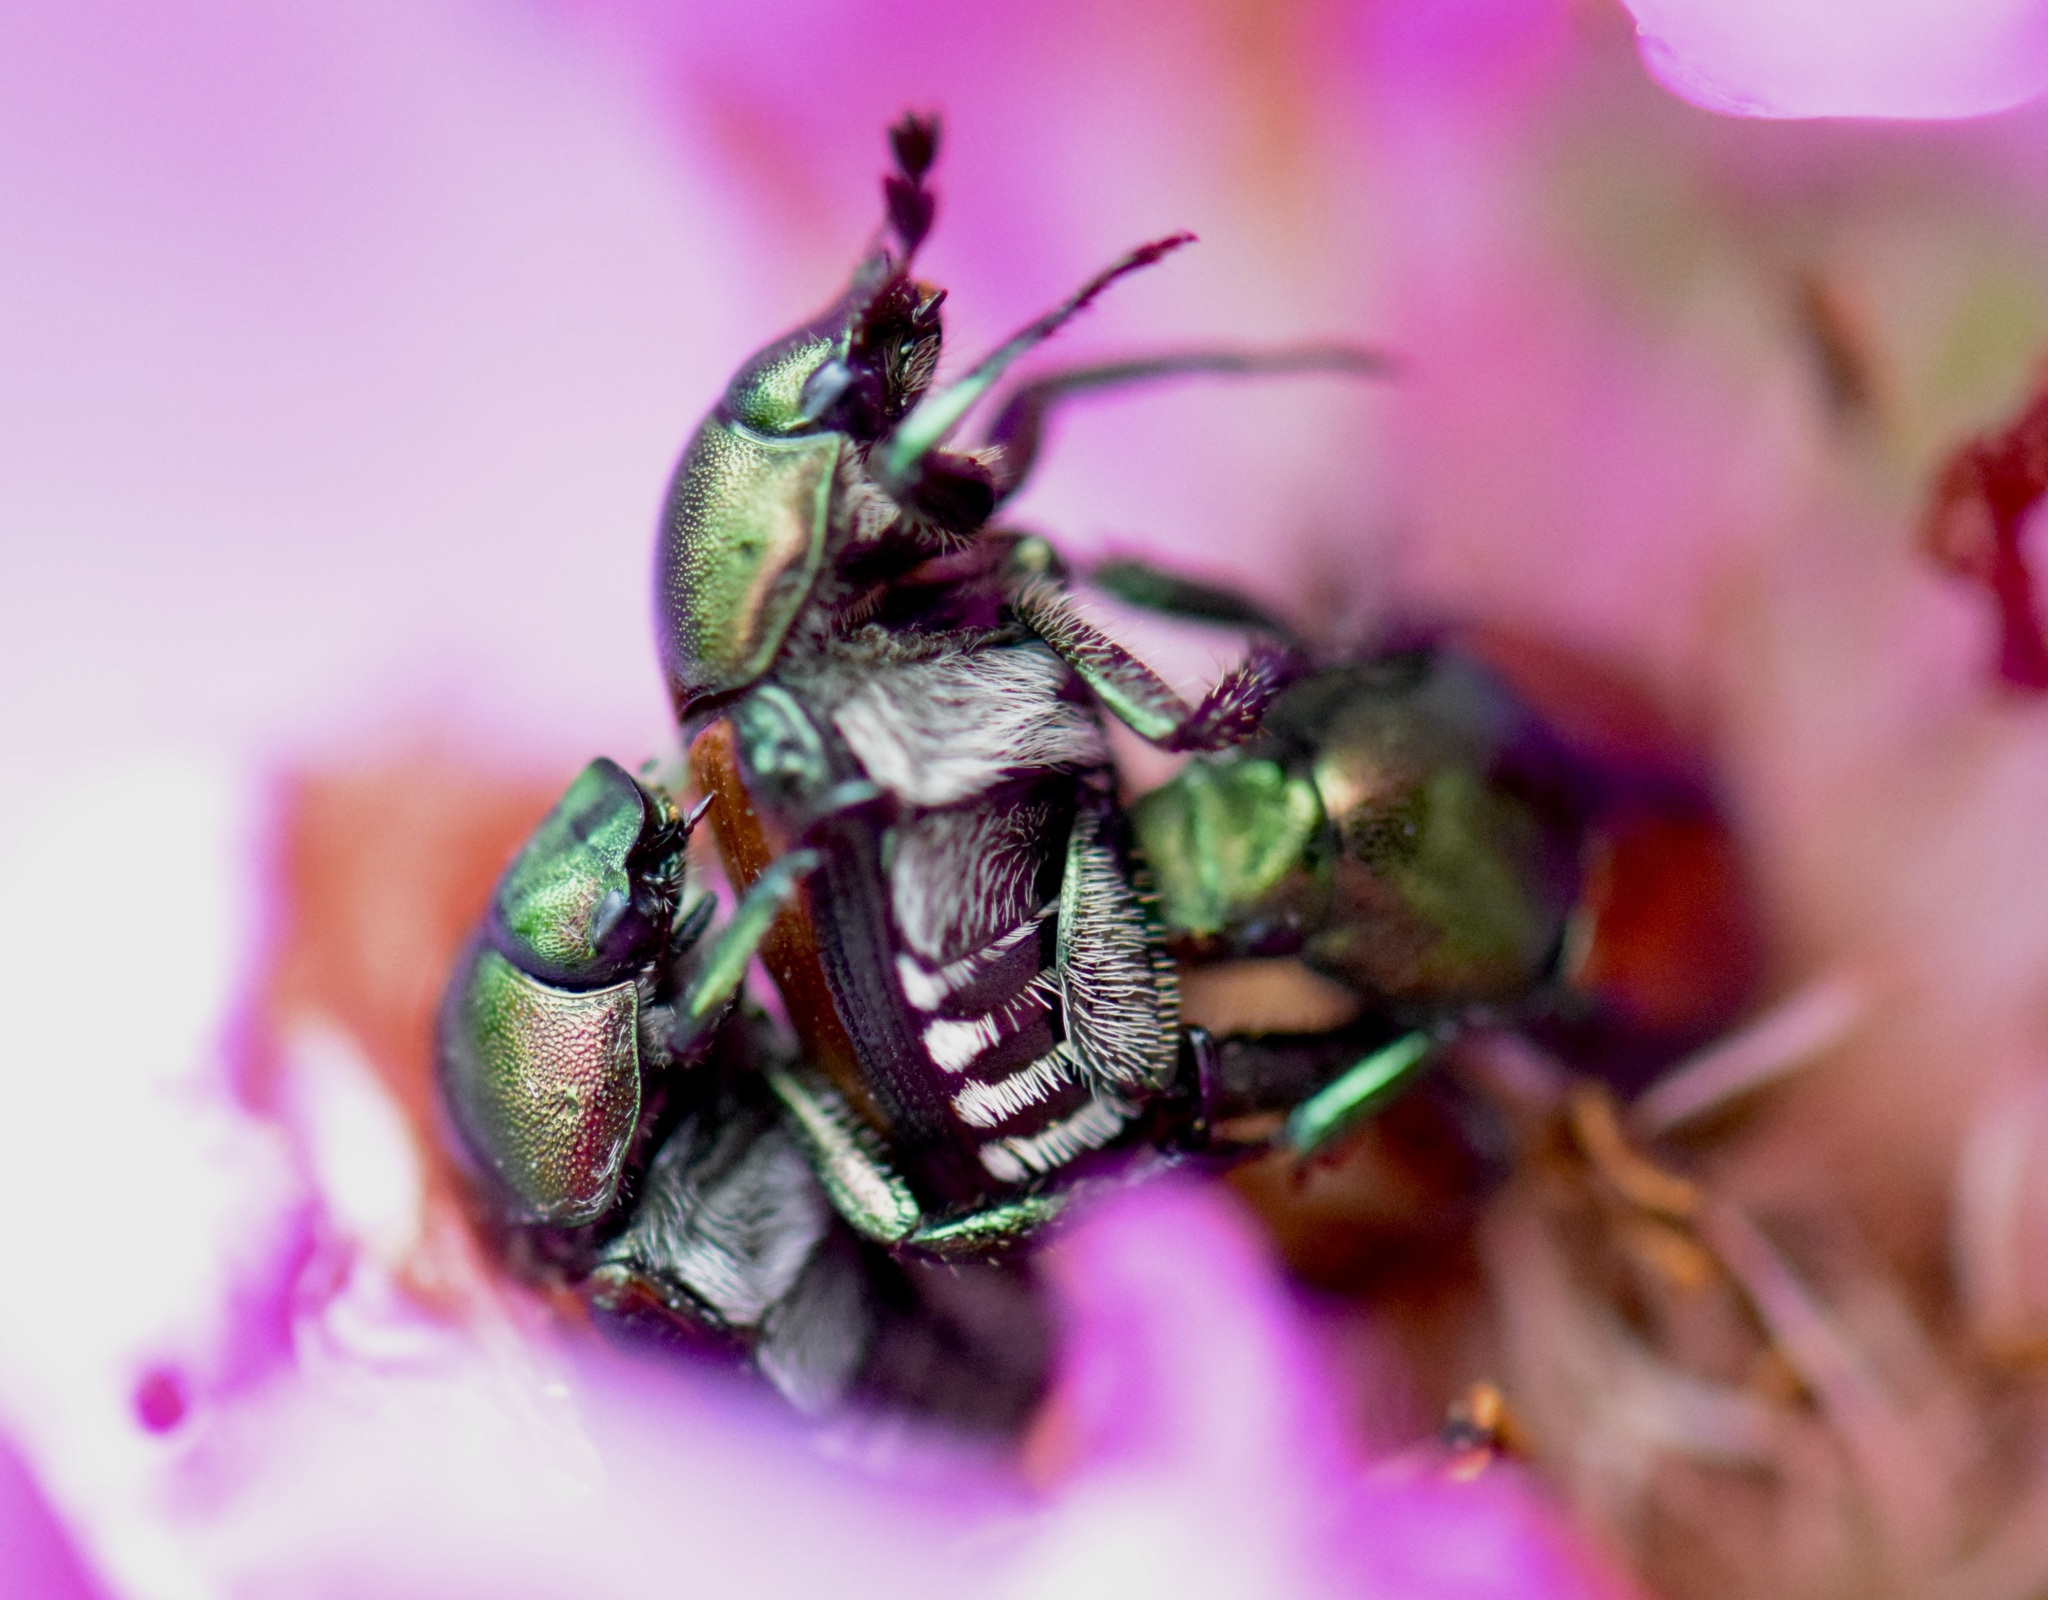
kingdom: Animalia
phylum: Arthropoda
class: Insecta
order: Coleoptera
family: Scarabaeidae
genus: Popillia
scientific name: Popillia japonica
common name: Japanese beetle
